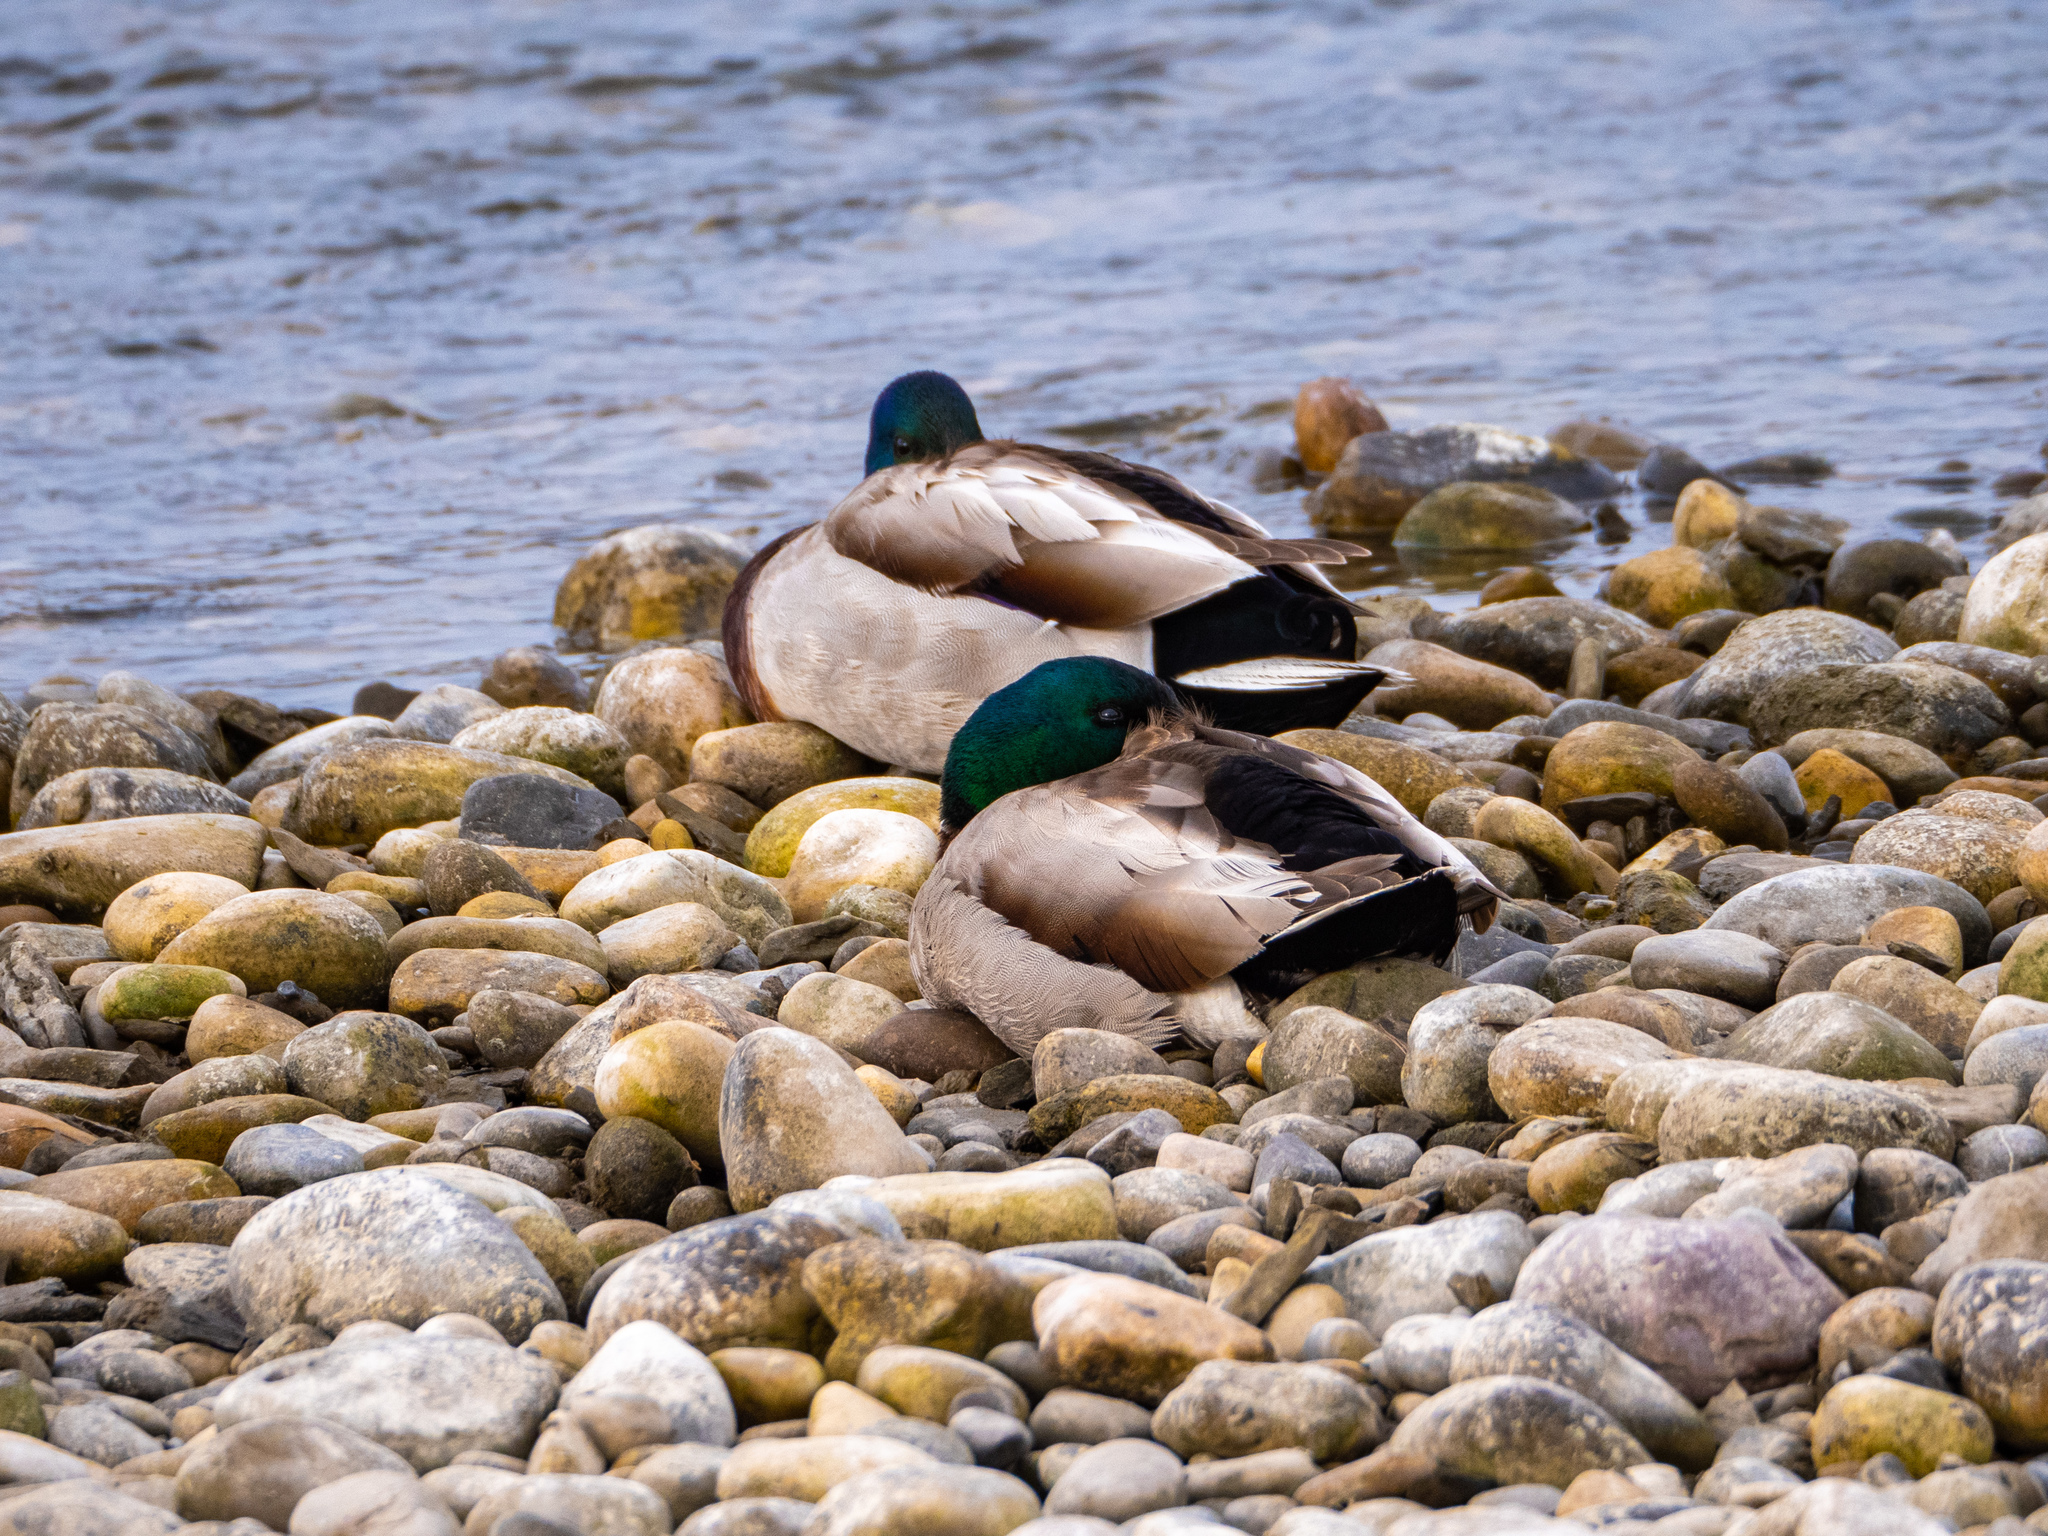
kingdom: Animalia
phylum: Chordata
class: Aves
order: Anseriformes
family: Anatidae
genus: Anas
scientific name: Anas platyrhynchos
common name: Mallard
